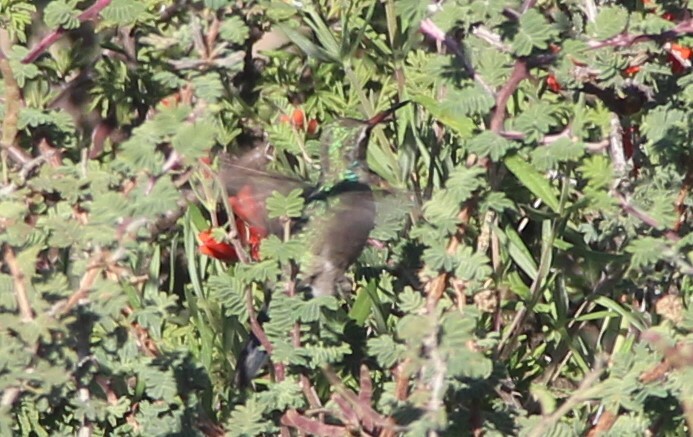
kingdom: Animalia
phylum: Chordata
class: Aves
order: Apodiformes
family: Trochilidae
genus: Cynanthus
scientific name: Cynanthus latirostris
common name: Broad-billed hummingbird
